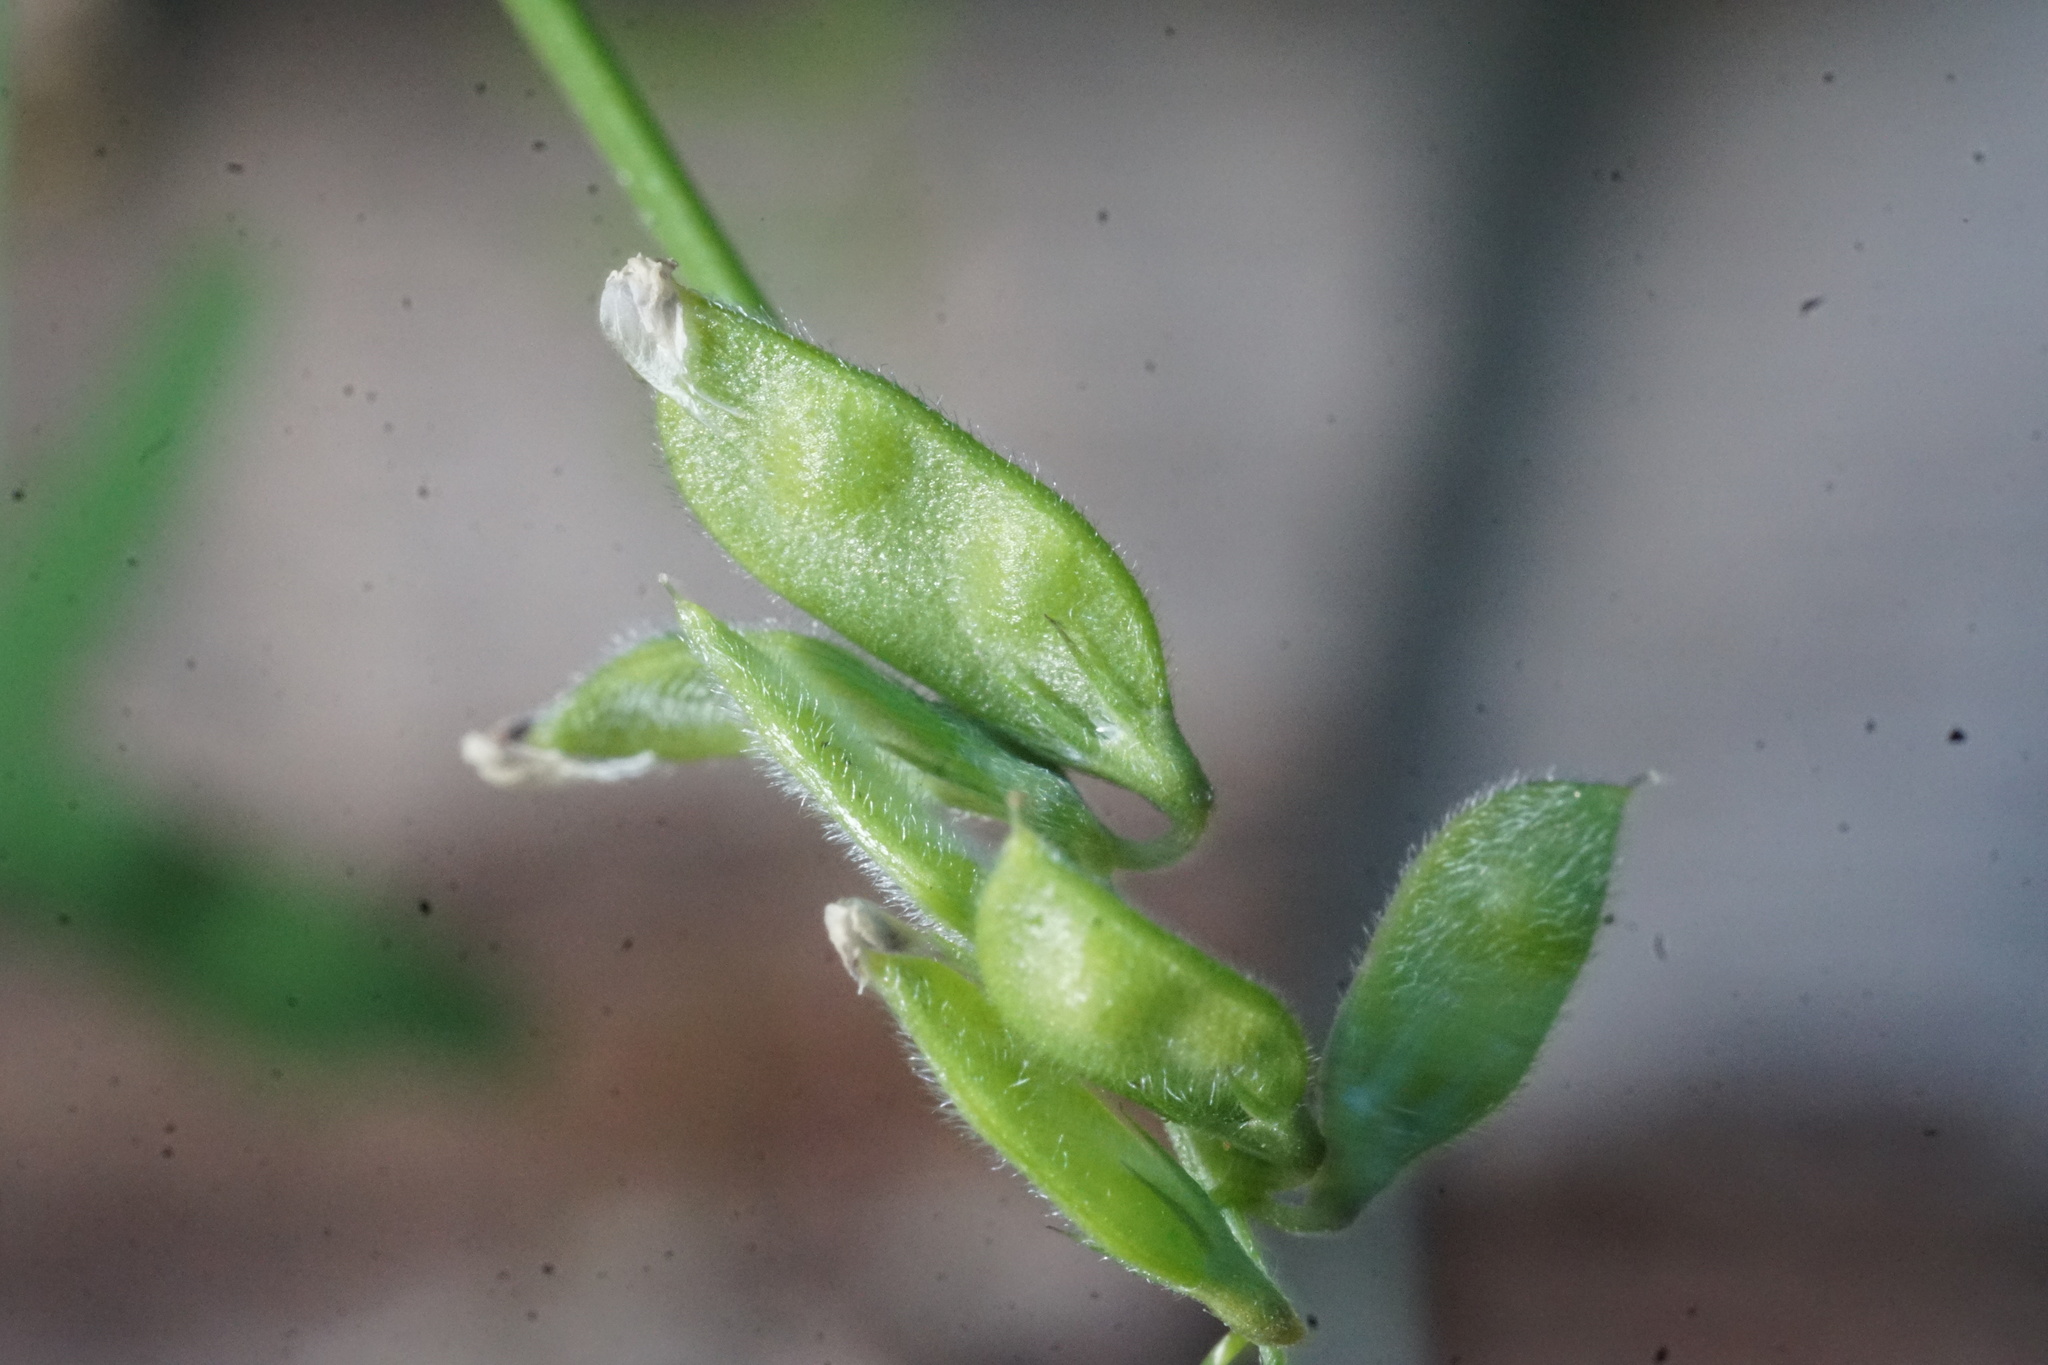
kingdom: Plantae
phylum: Tracheophyta
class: Magnoliopsida
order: Fabales
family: Fabaceae
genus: Vicia
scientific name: Vicia hirsuta
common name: Tiny vetch
